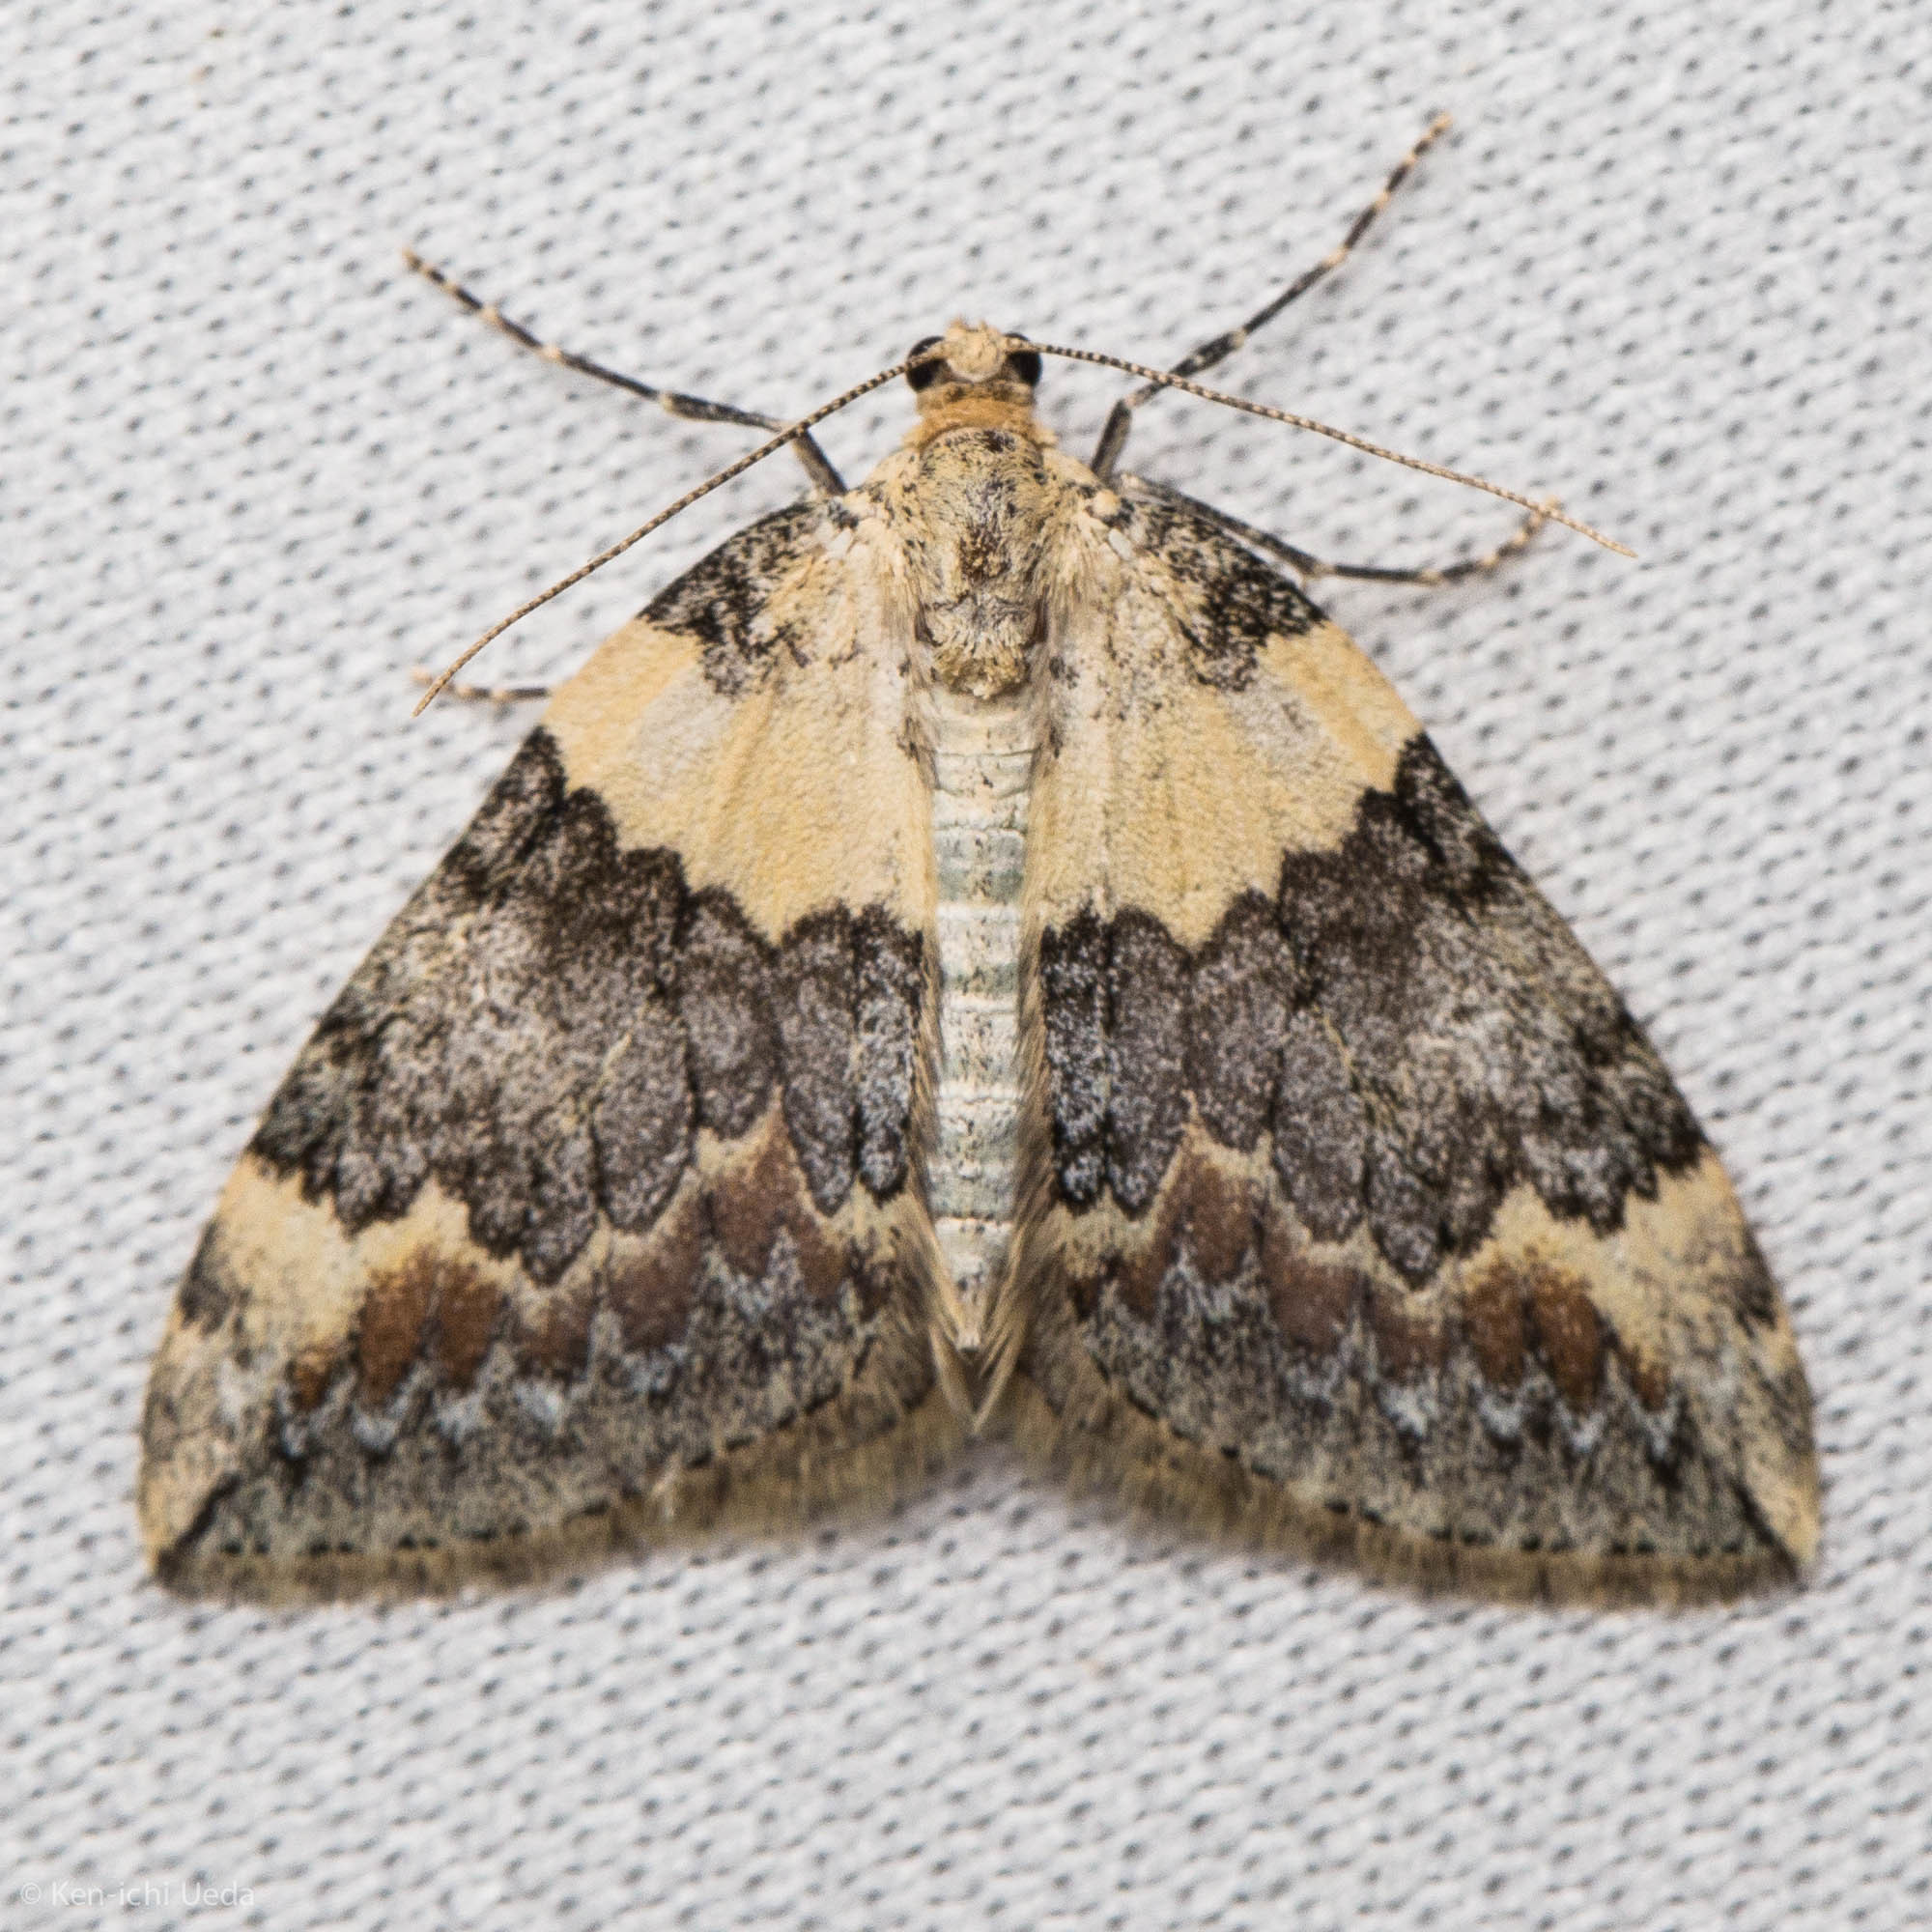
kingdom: Animalia
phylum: Arthropoda
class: Insecta
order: Lepidoptera
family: Geometridae
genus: Dysstroma
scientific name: Dysstroma brunneata
